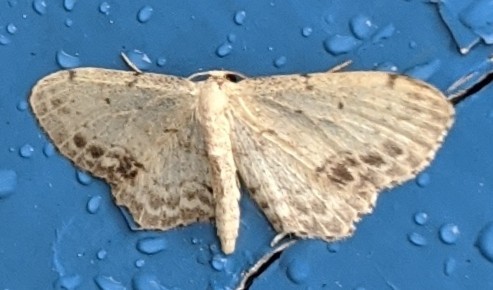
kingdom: Animalia
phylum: Arthropoda
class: Insecta
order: Lepidoptera
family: Geometridae
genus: Idaea
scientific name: Idaea dimidiata
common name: Single-dotted wave
